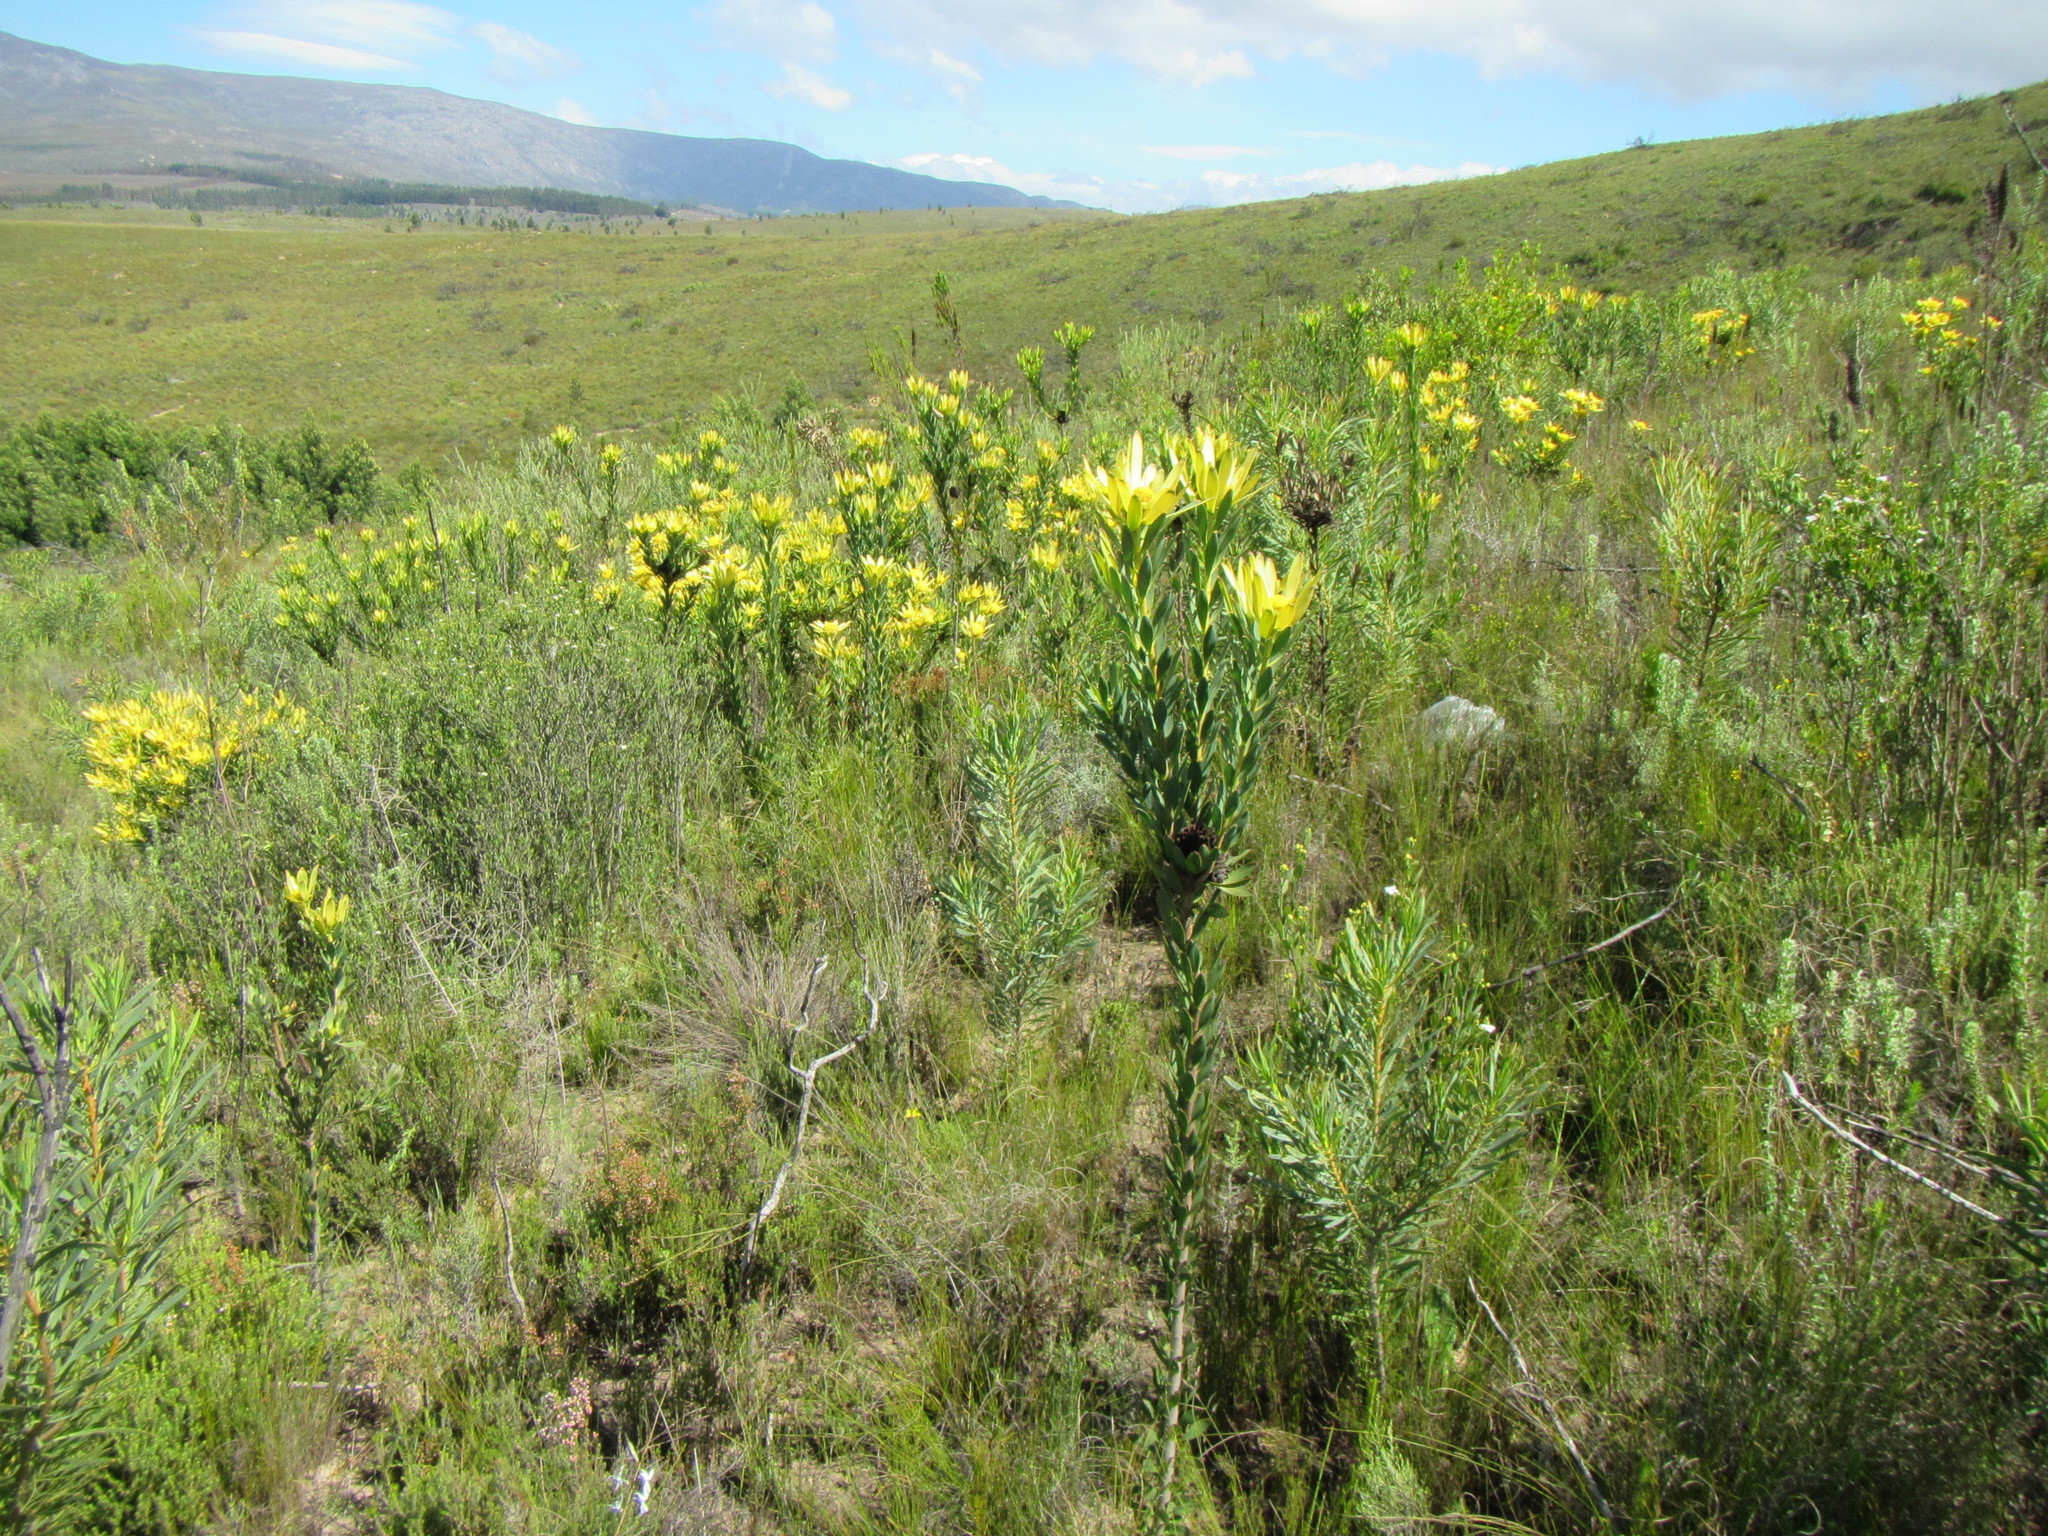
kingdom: Plantae
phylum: Tracheophyta
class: Magnoliopsida
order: Proteales
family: Proteaceae
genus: Leucadendron
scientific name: Leucadendron elimense
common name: Elim conebush
